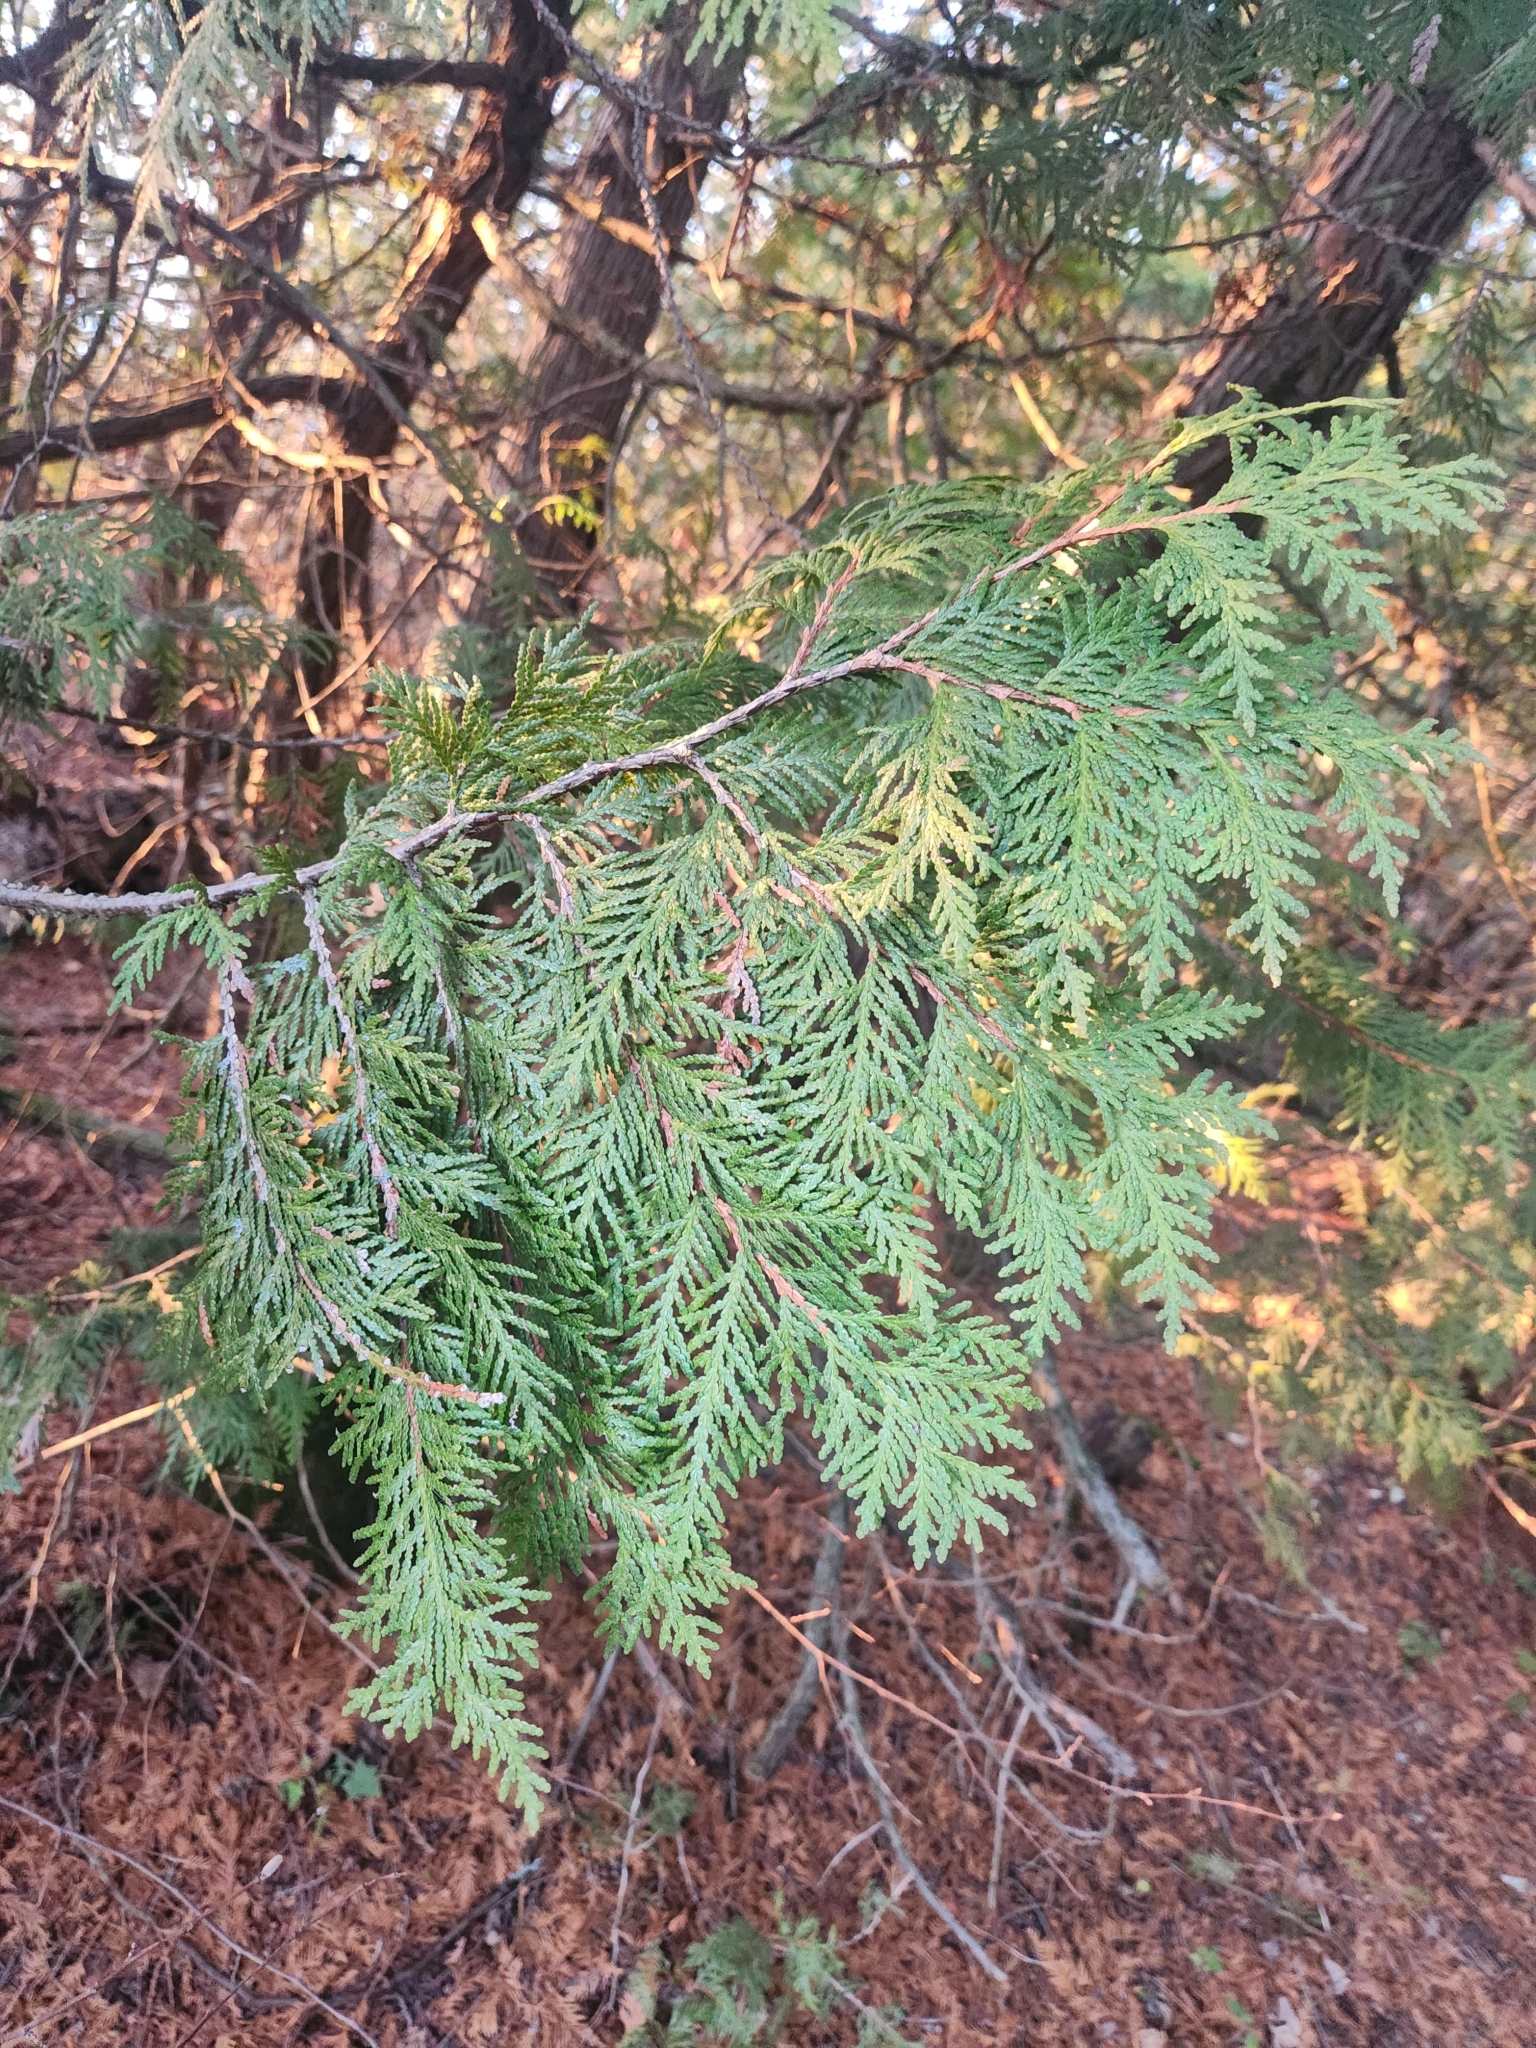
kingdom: Plantae
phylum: Tracheophyta
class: Pinopsida
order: Pinales
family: Cupressaceae
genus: Thuja
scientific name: Thuja occidentalis
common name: Northern white-cedar
